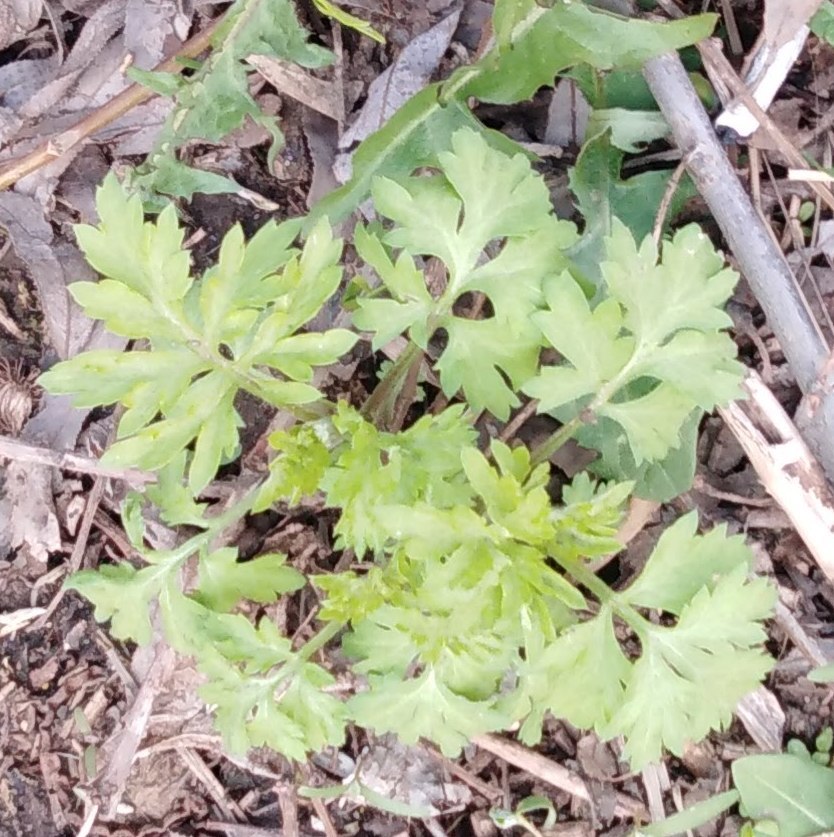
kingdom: Plantae
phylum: Tracheophyta
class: Magnoliopsida
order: Asterales
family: Asteraceae
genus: Artemisia
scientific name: Artemisia vulgaris
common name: Mugwort
